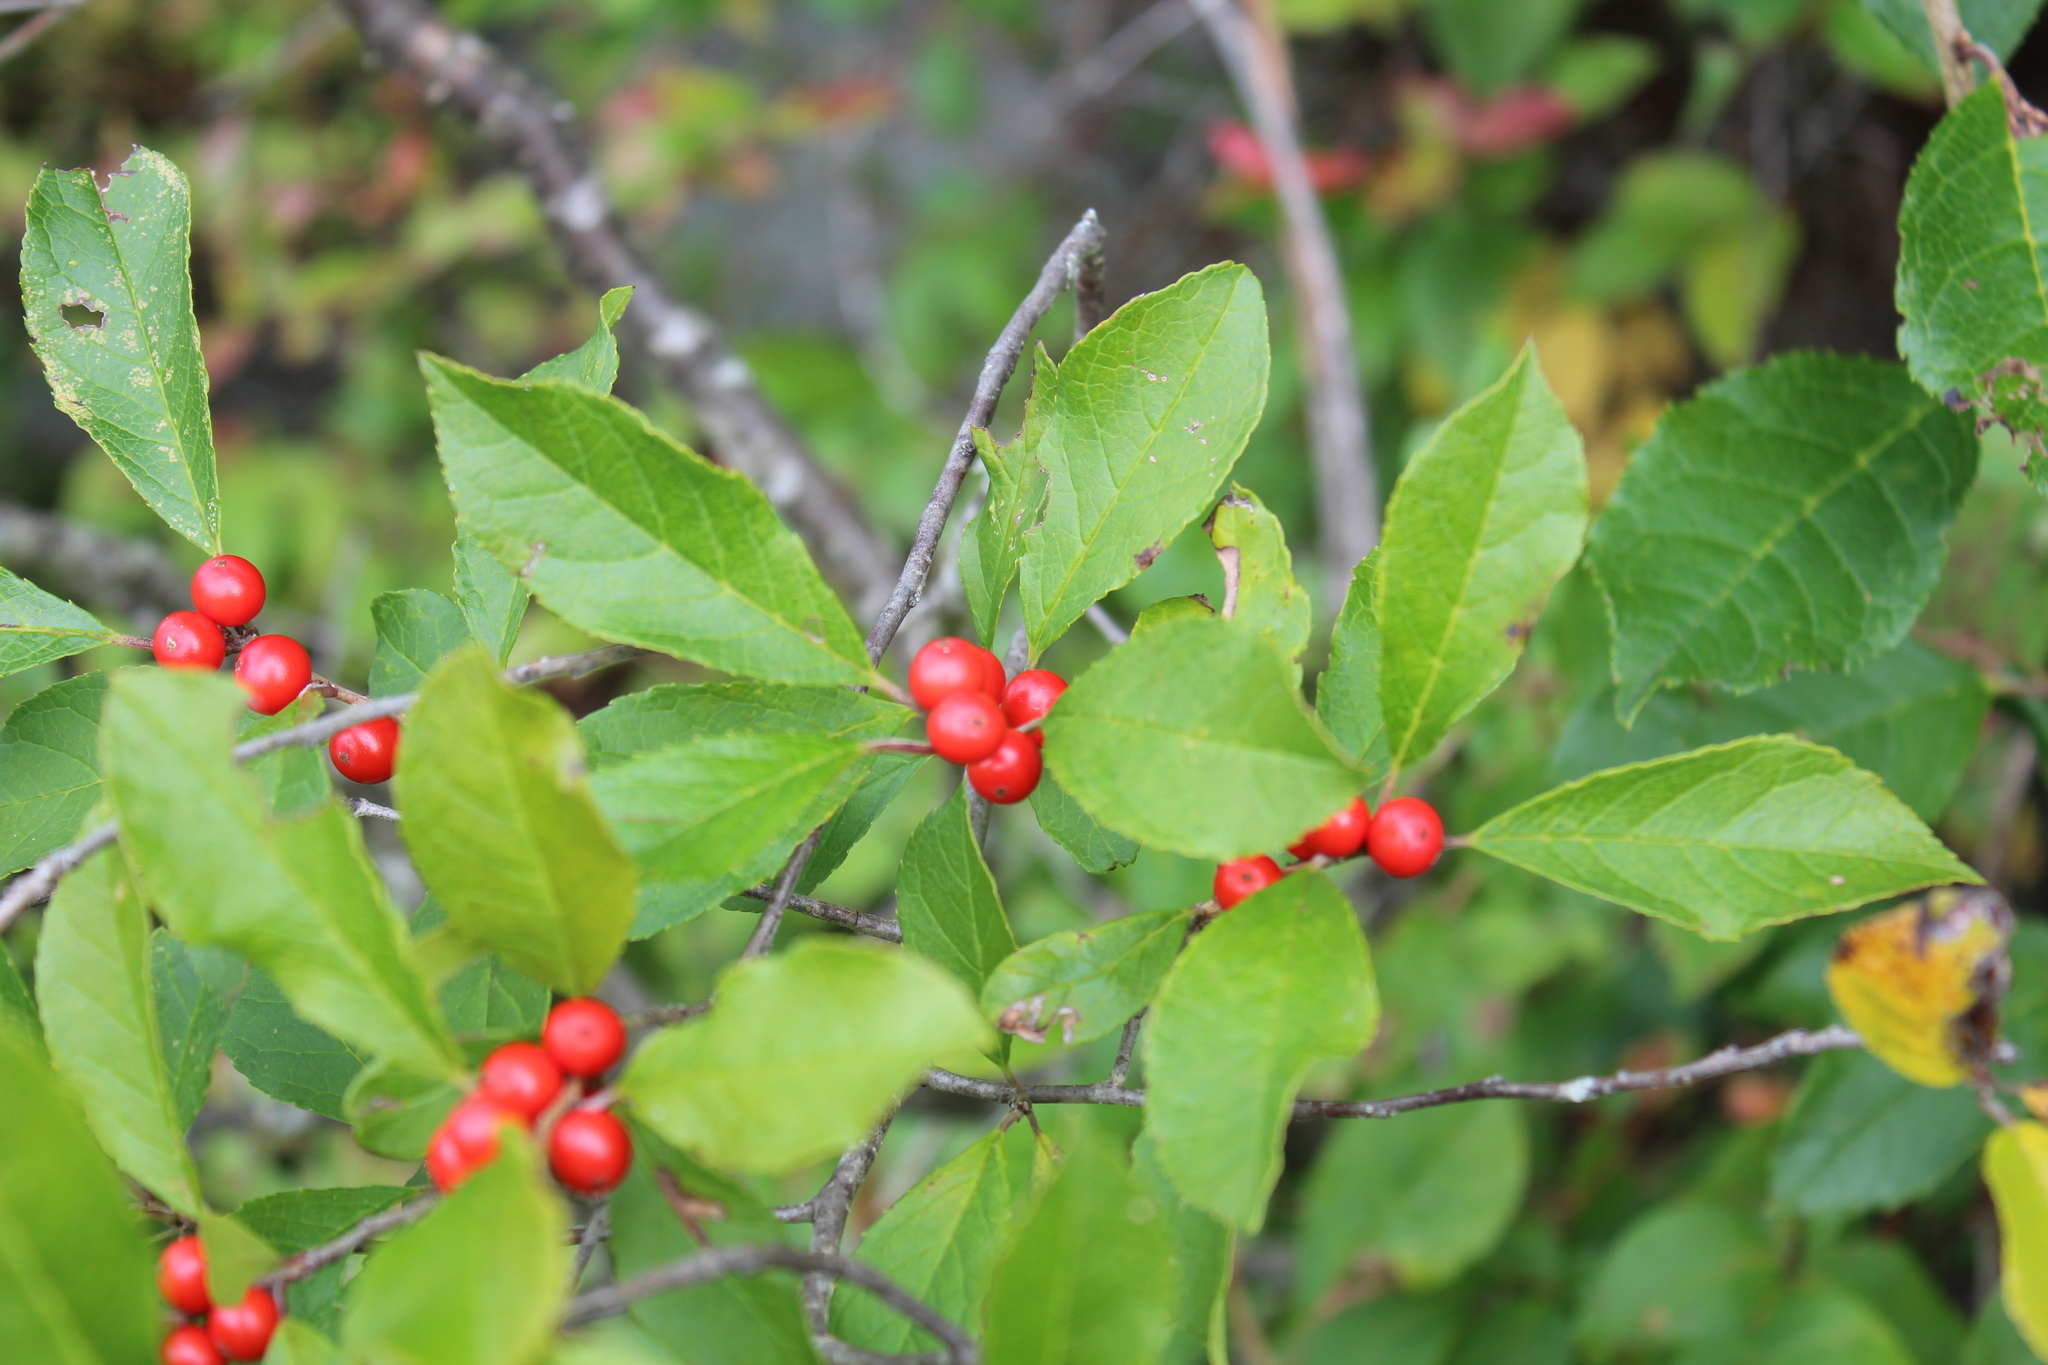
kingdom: Plantae
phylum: Tracheophyta
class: Magnoliopsida
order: Aquifoliales
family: Aquifoliaceae
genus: Ilex
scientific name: Ilex verticillata
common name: Virginia winterberry
